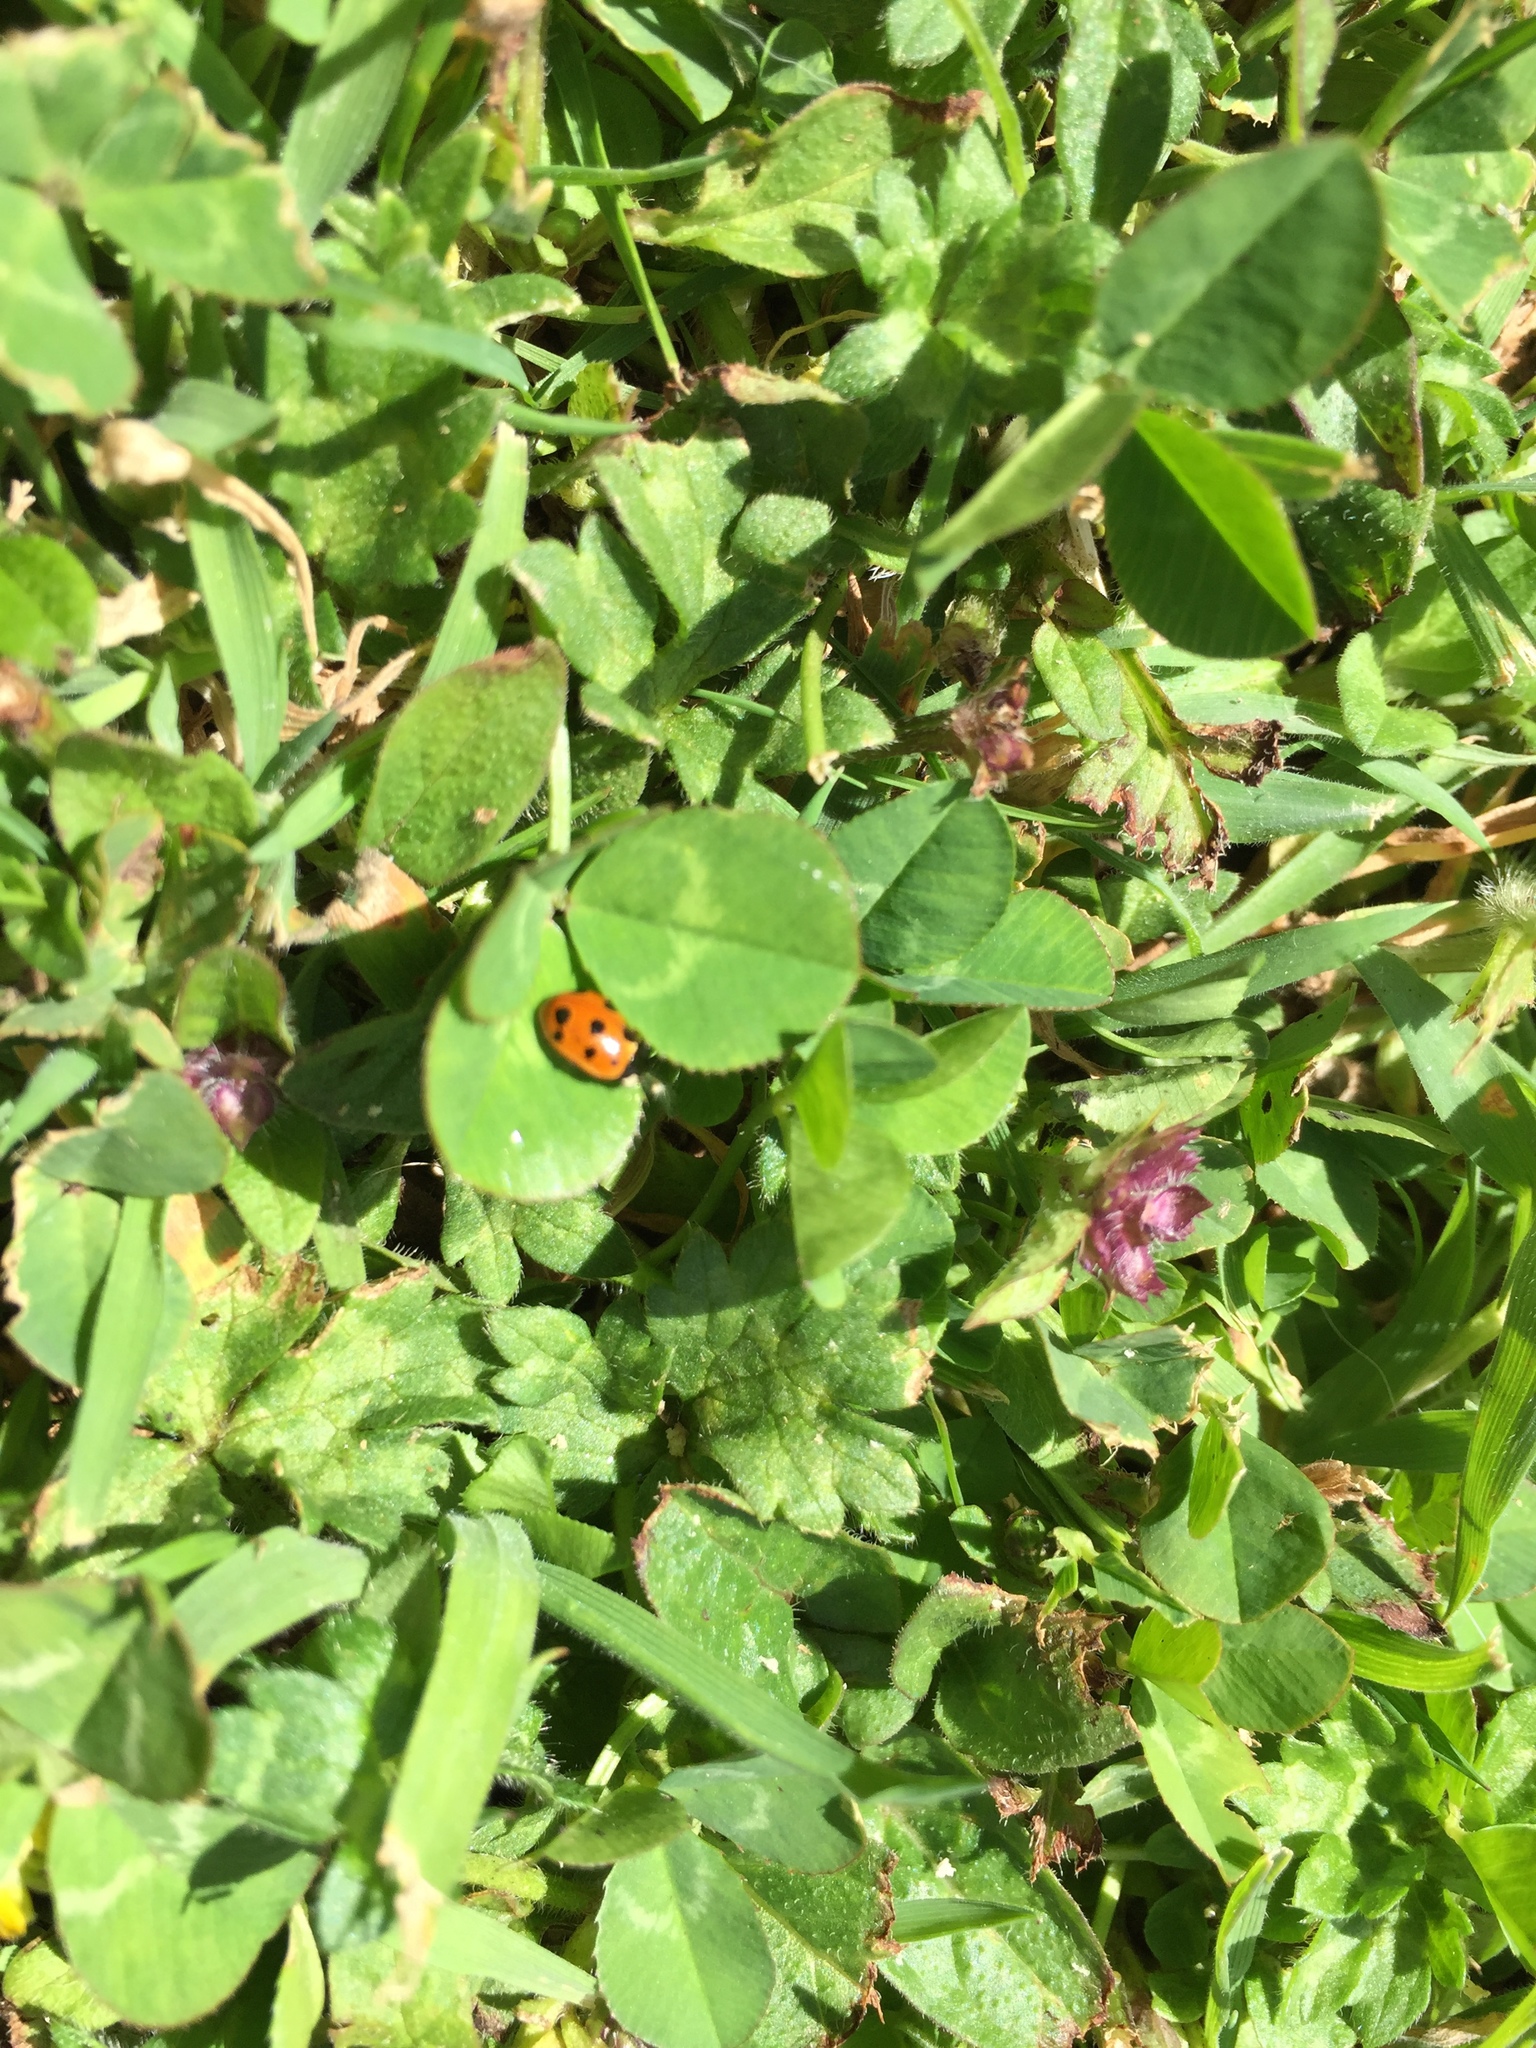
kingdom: Animalia
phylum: Arthropoda
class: Insecta
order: Coleoptera
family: Coccinellidae
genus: Coccinella
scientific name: Coccinella undecimpunctata
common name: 11-spot ladybird
